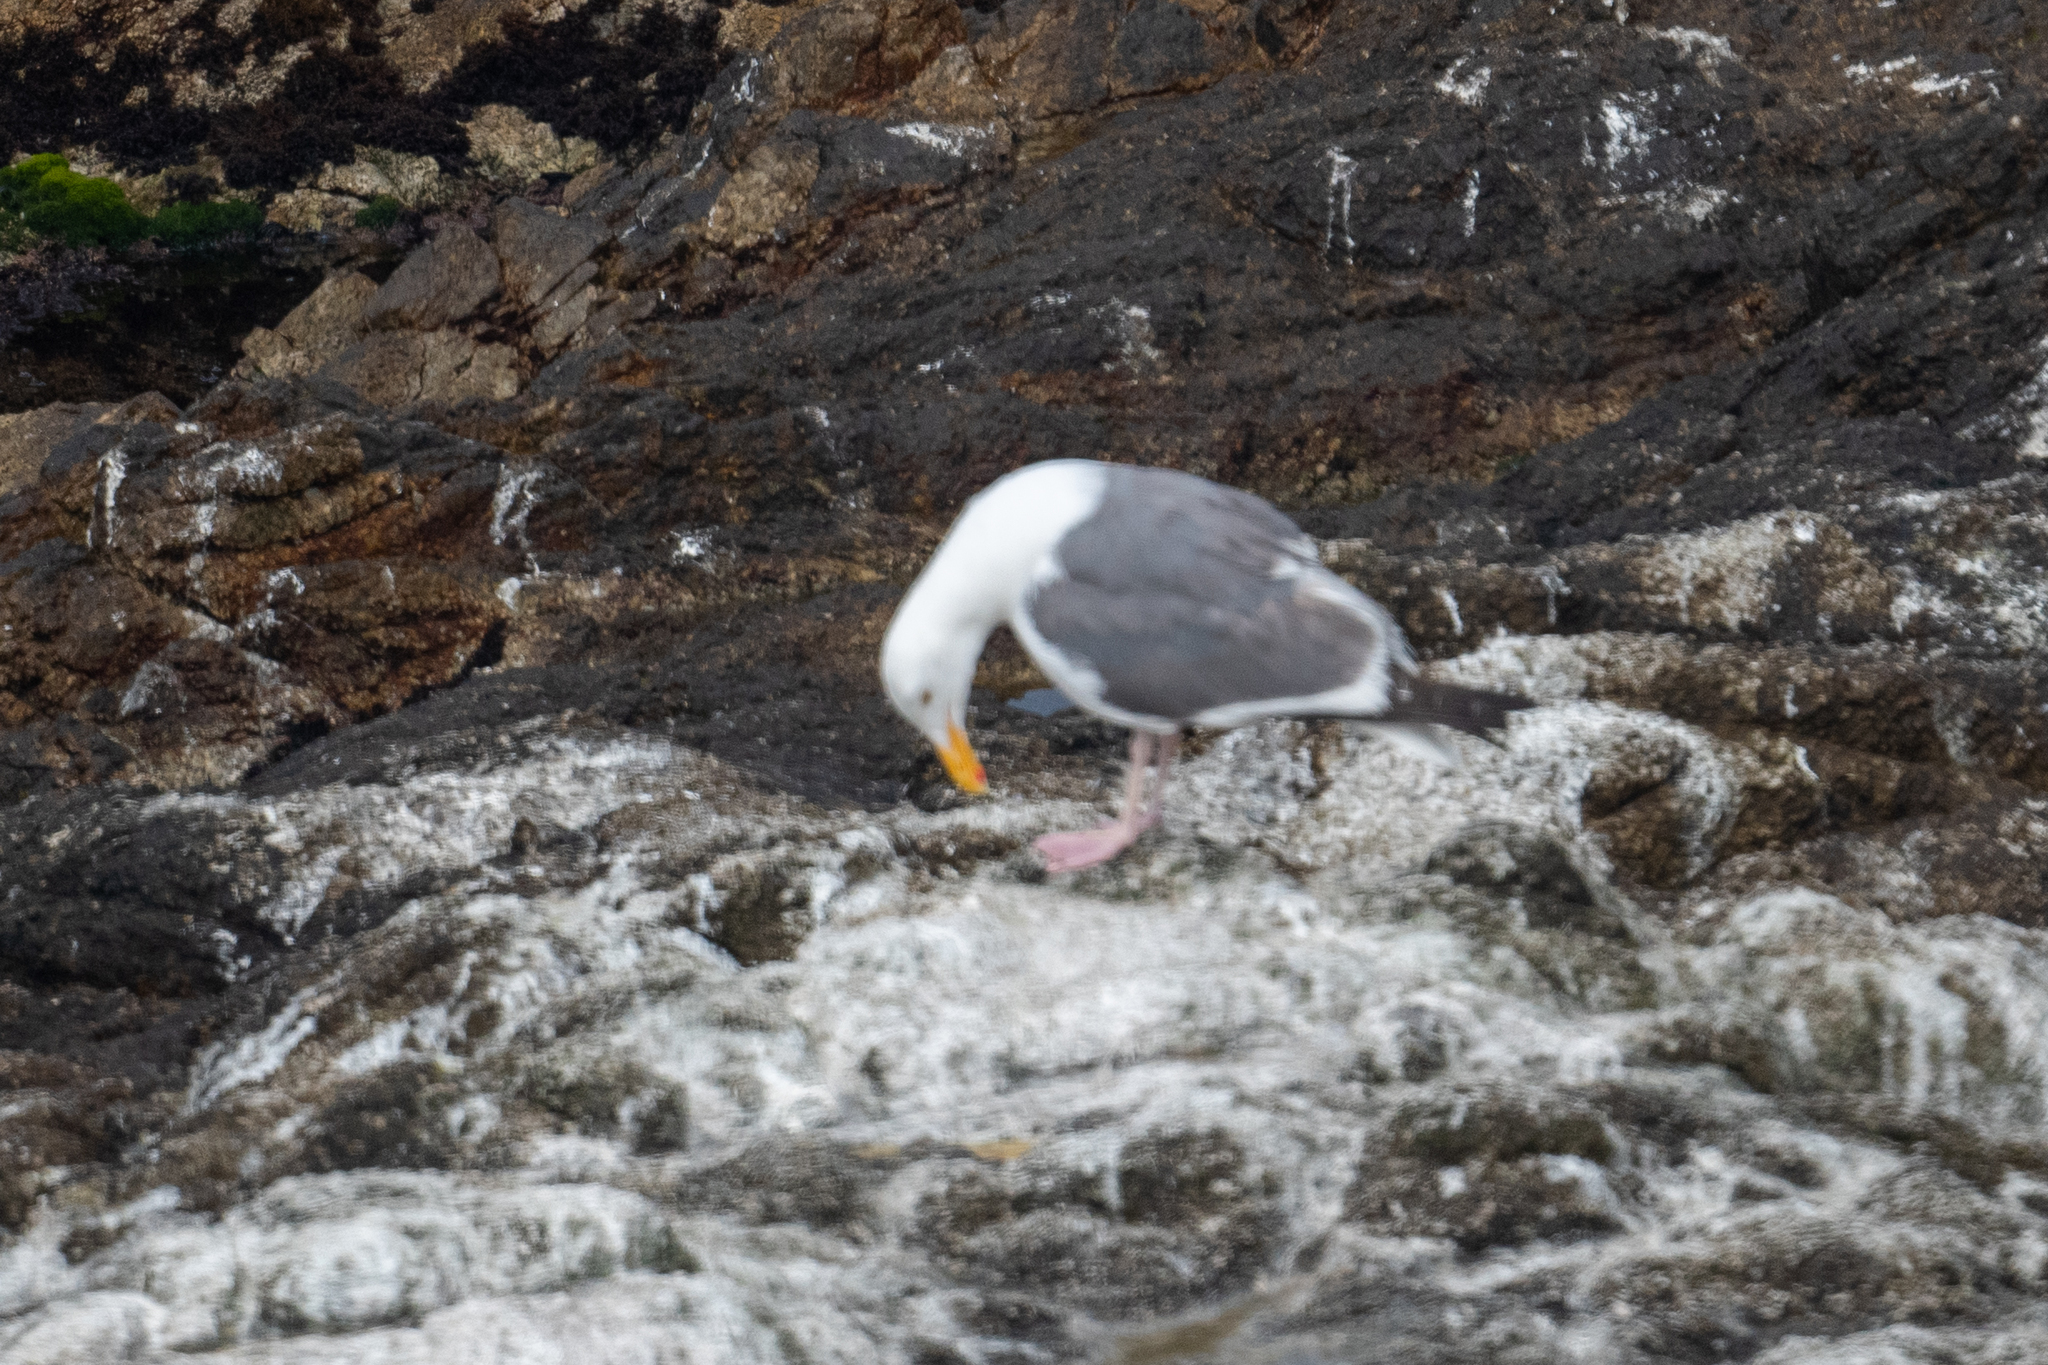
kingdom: Animalia
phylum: Chordata
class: Aves
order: Charadriiformes
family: Laridae
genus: Larus
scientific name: Larus occidentalis
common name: Western gull
